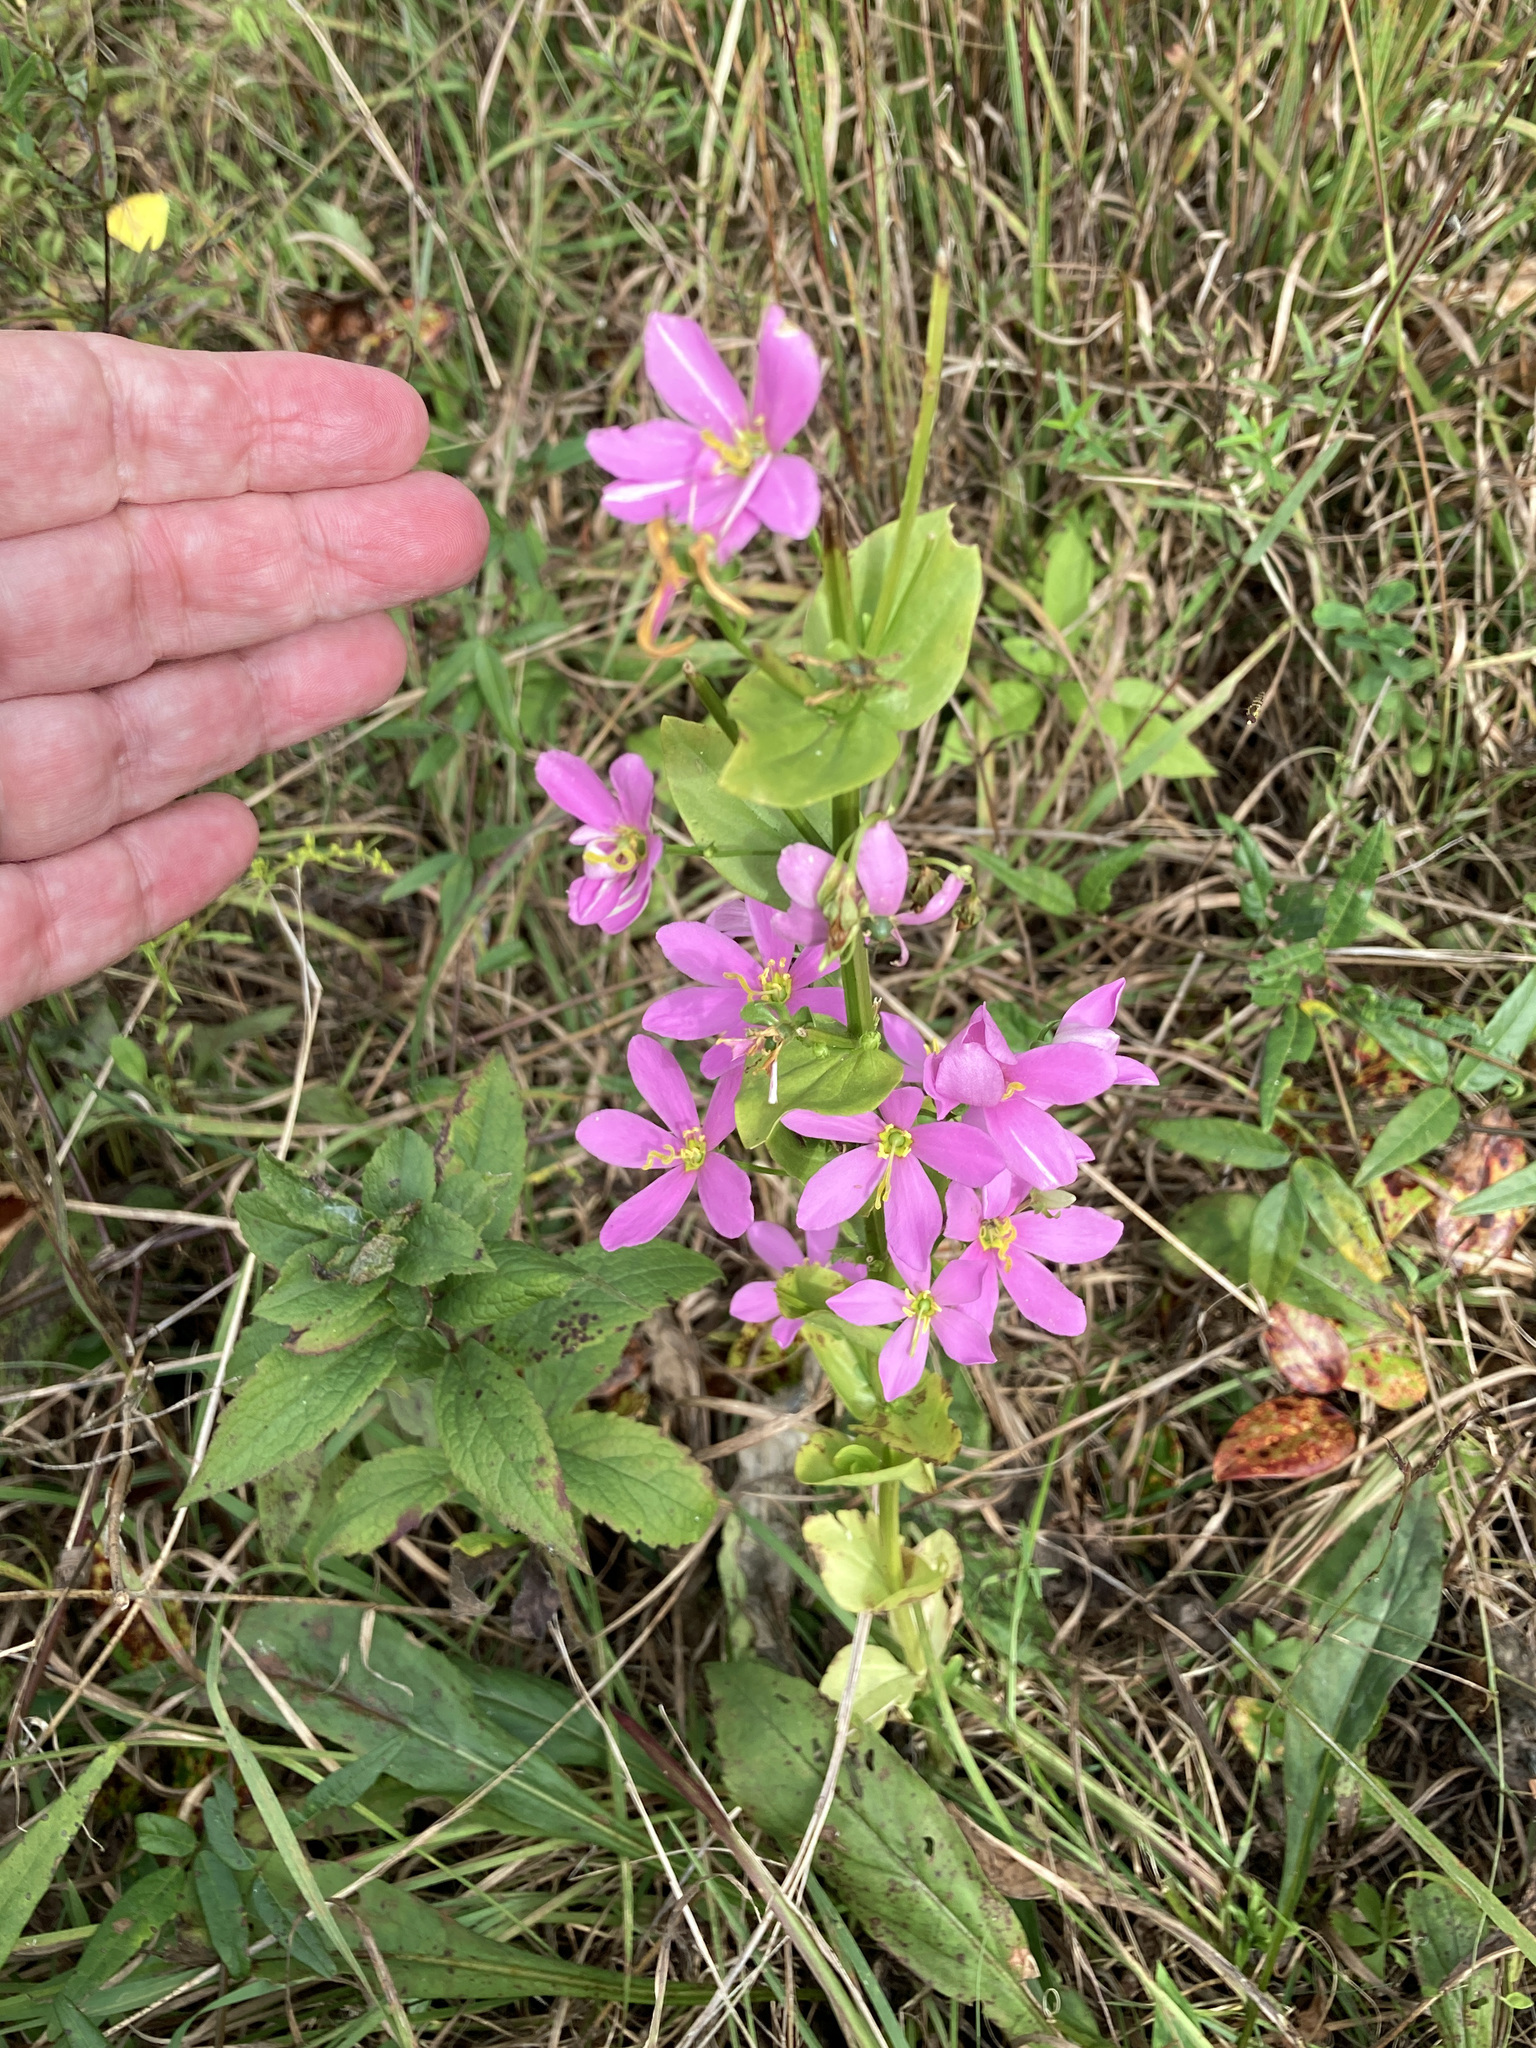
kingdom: Plantae
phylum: Tracheophyta
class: Magnoliopsida
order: Gentianales
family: Gentianaceae
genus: Sabatia
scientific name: Sabatia angularis
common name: Rose-pink
